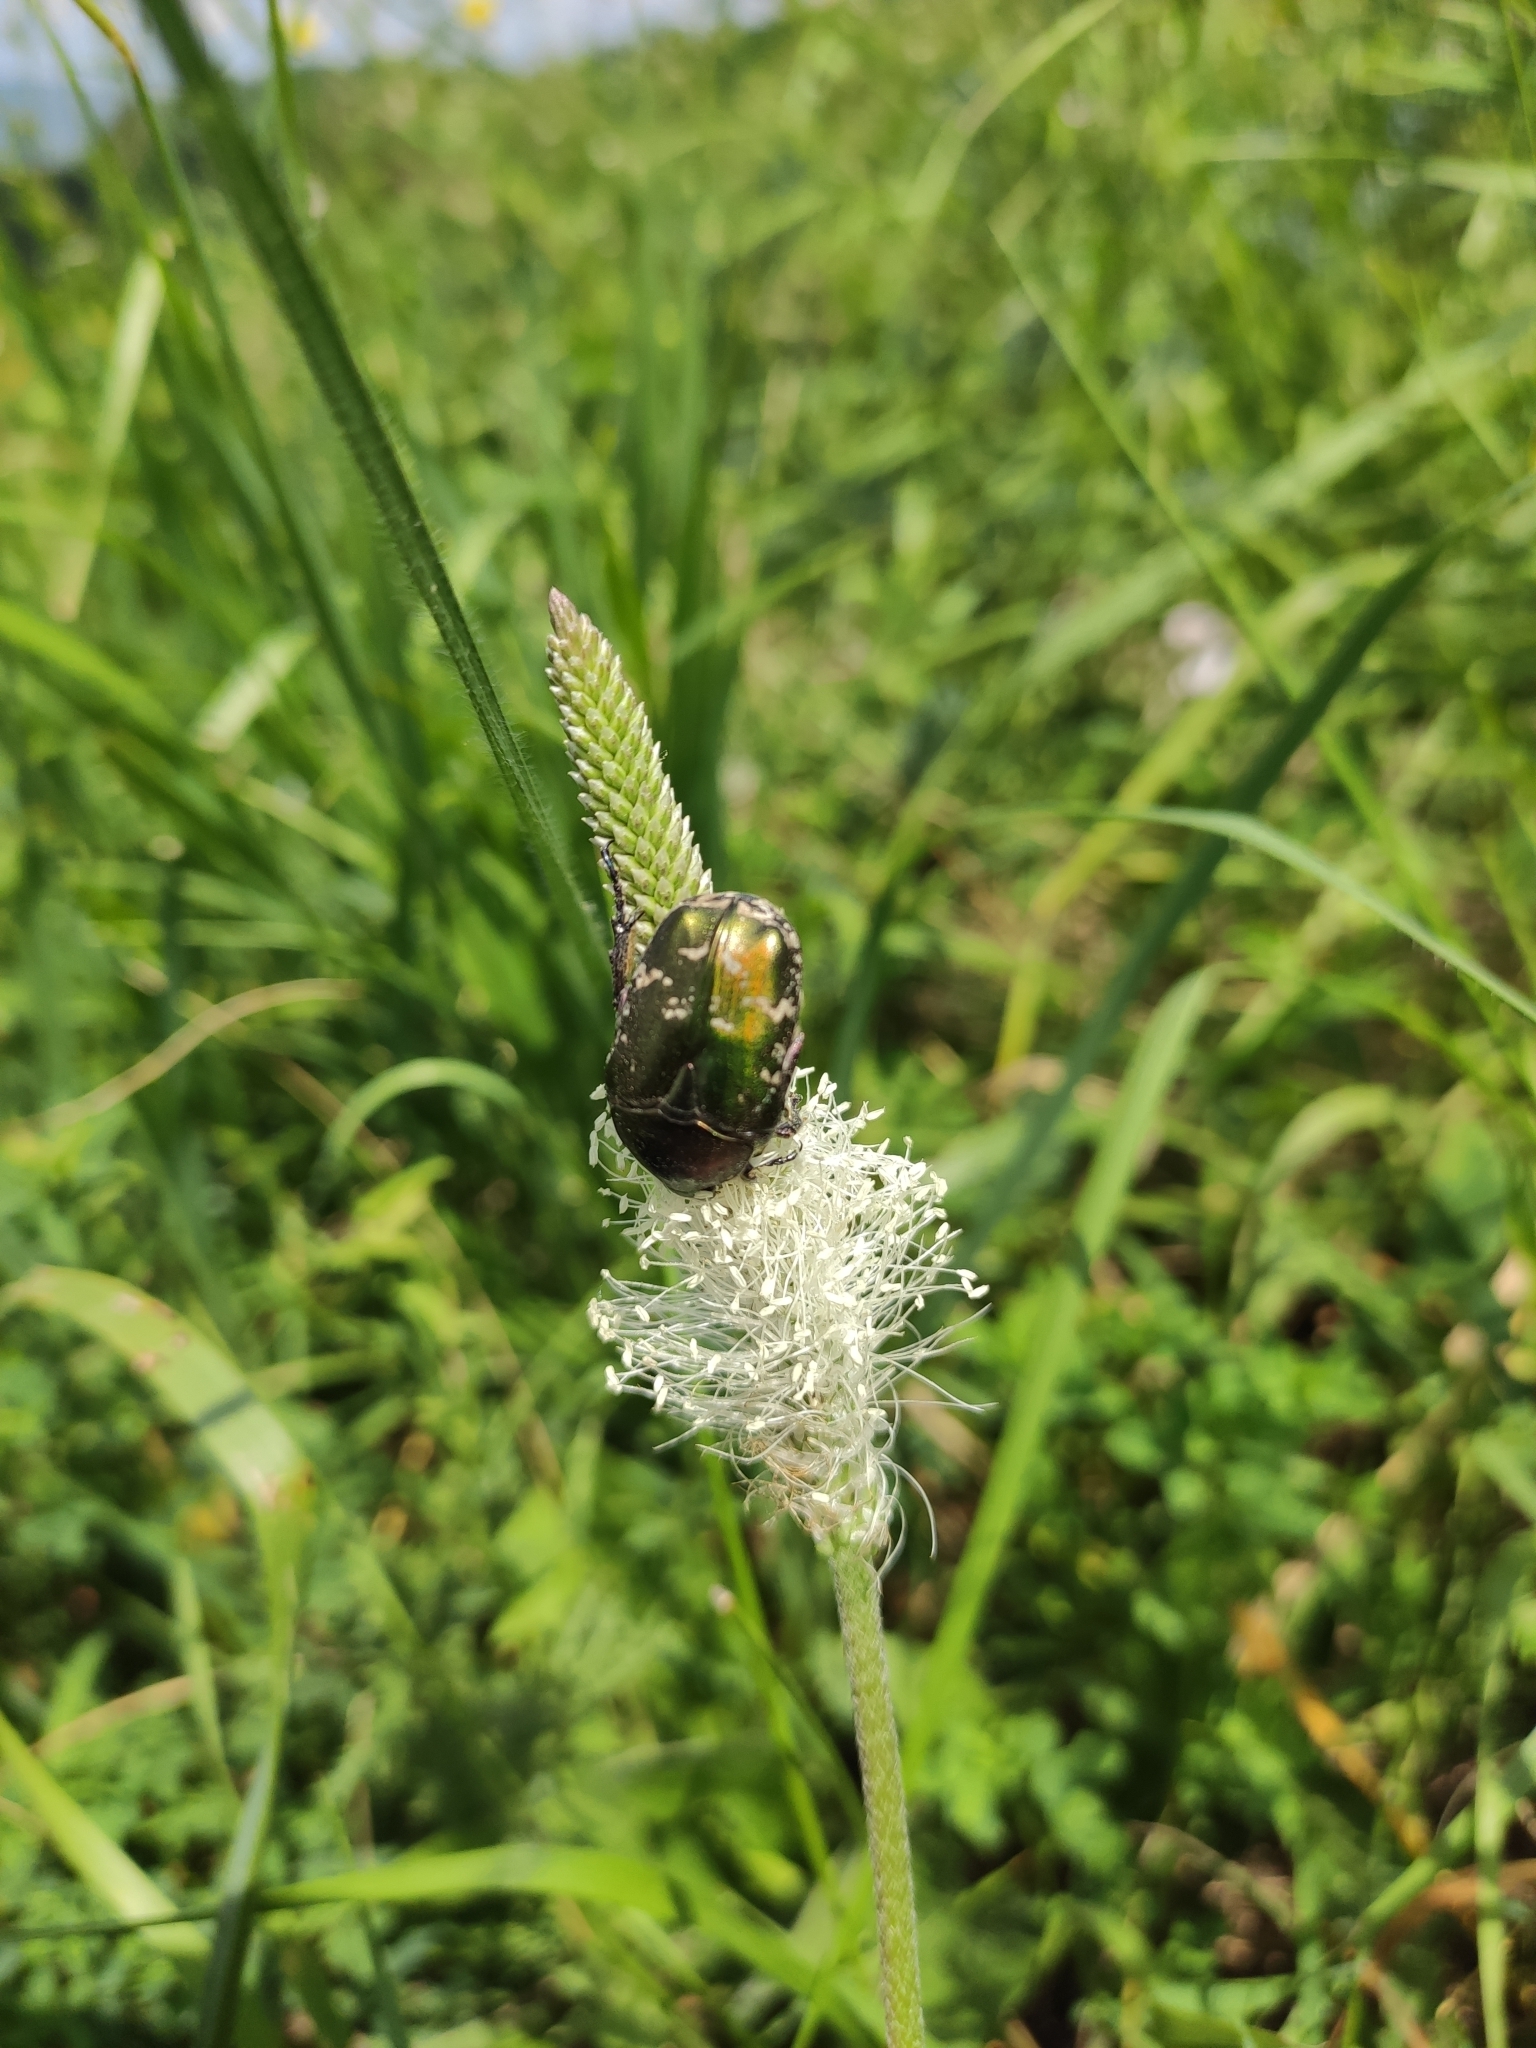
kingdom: Animalia
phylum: Arthropoda
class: Insecta
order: Coleoptera
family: Scarabaeidae
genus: Protaetia
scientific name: Protaetia cuprea
